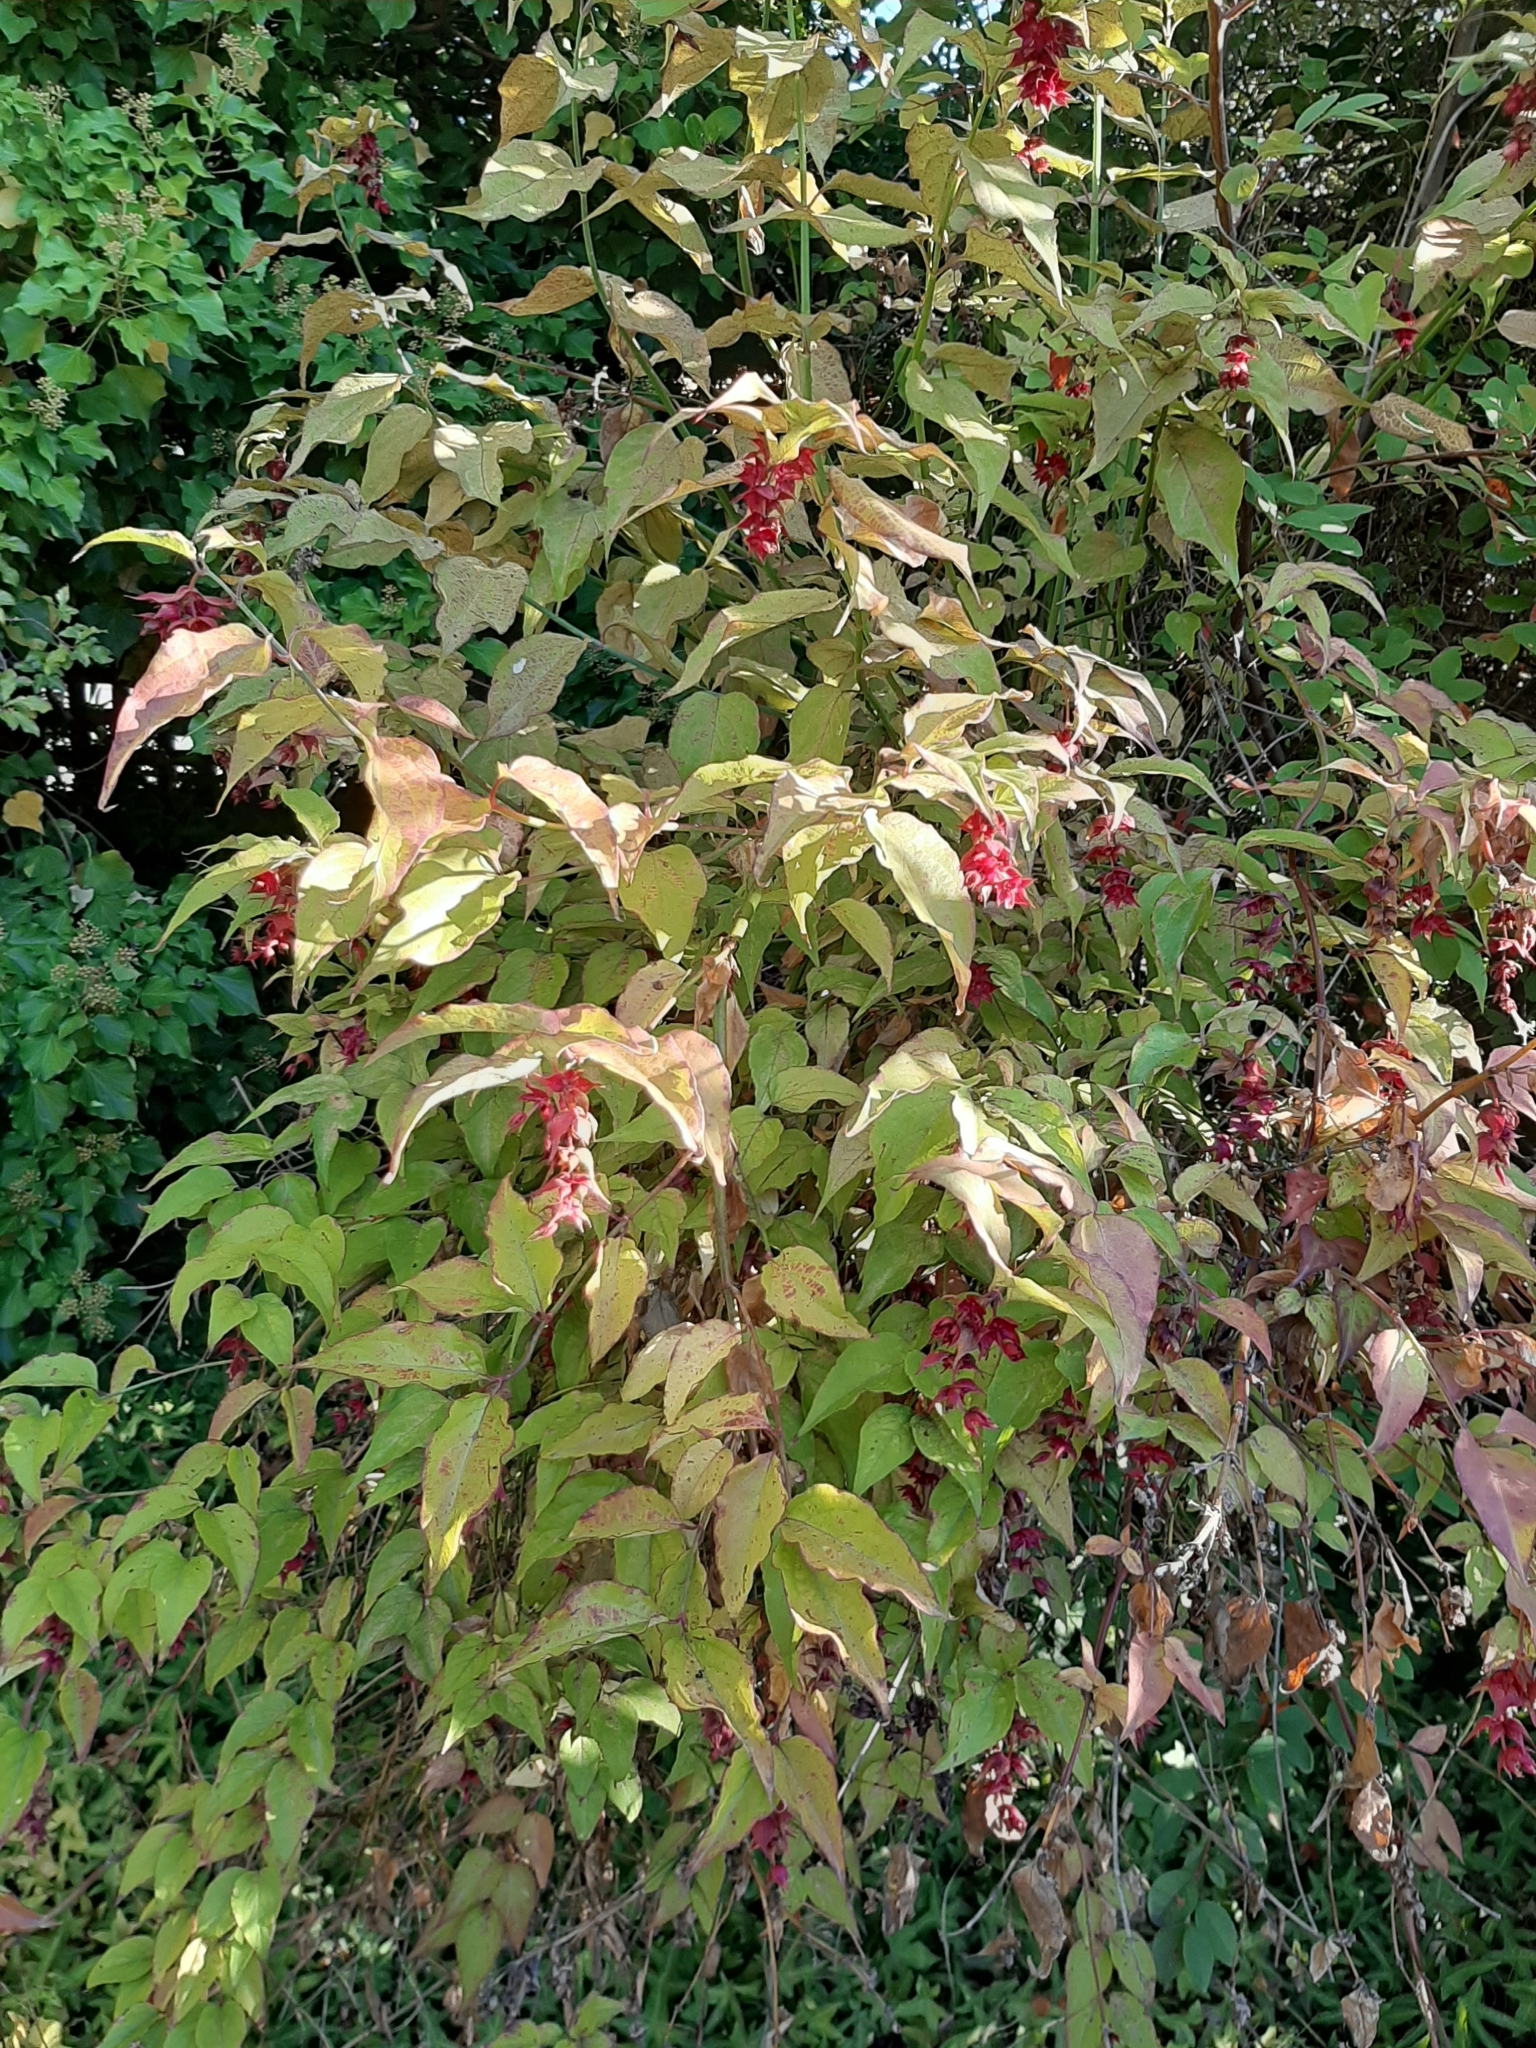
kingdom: Plantae
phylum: Tracheophyta
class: Magnoliopsida
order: Dipsacales
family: Caprifoliaceae
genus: Leycesteria
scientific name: Leycesteria formosa
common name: Himalayan honeysuckle
